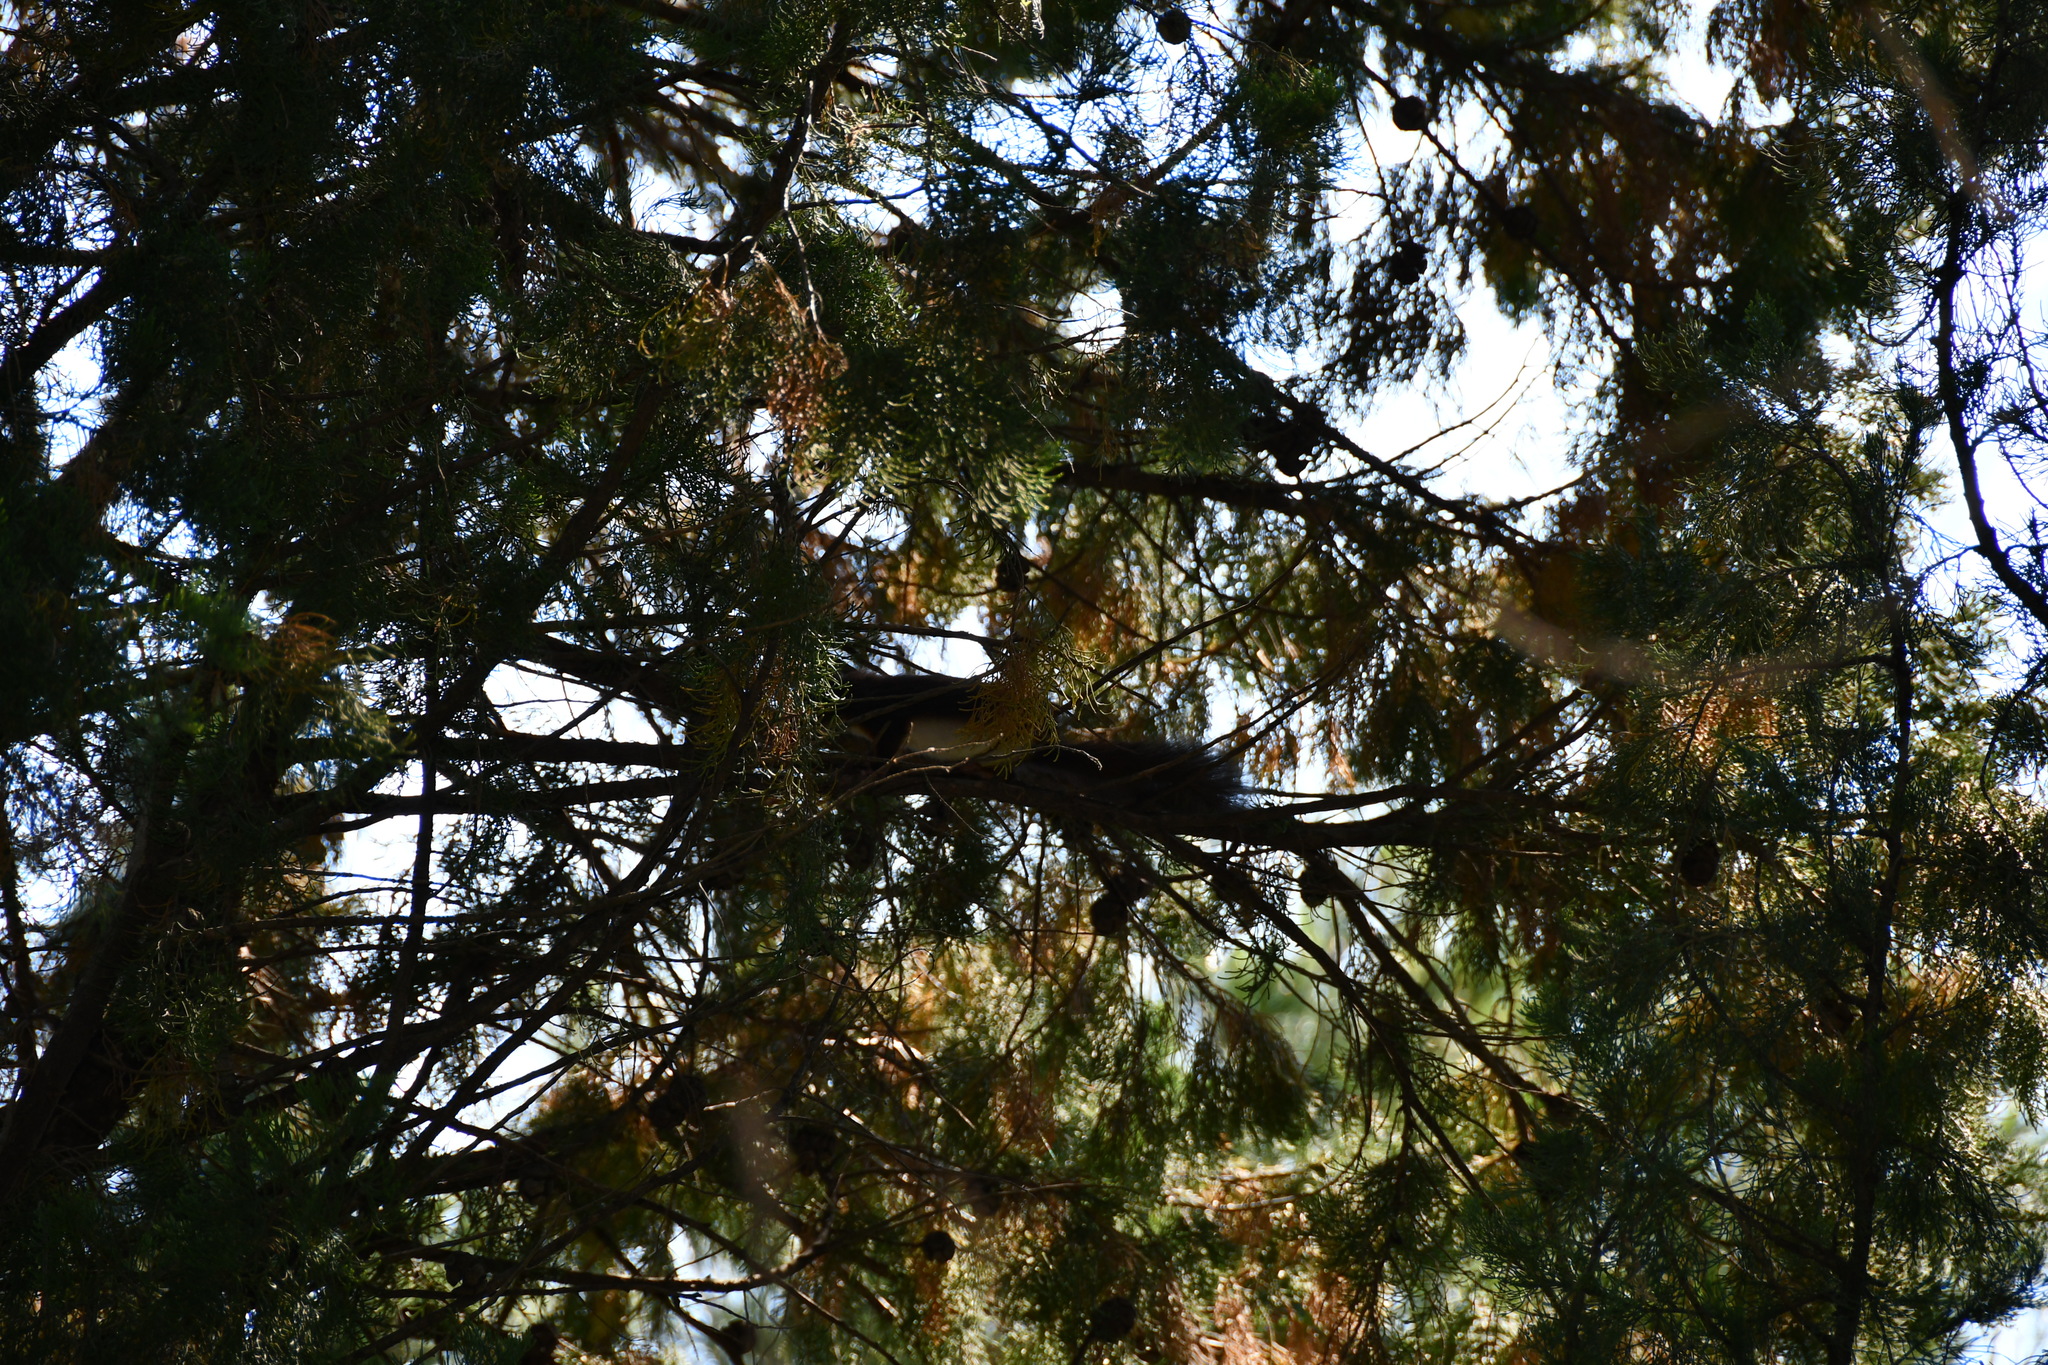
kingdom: Animalia
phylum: Chordata
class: Mammalia
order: Rodentia
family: Sciuridae
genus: Sciurus
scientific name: Sciurus vulgaris
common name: Eurasian red squirrel
